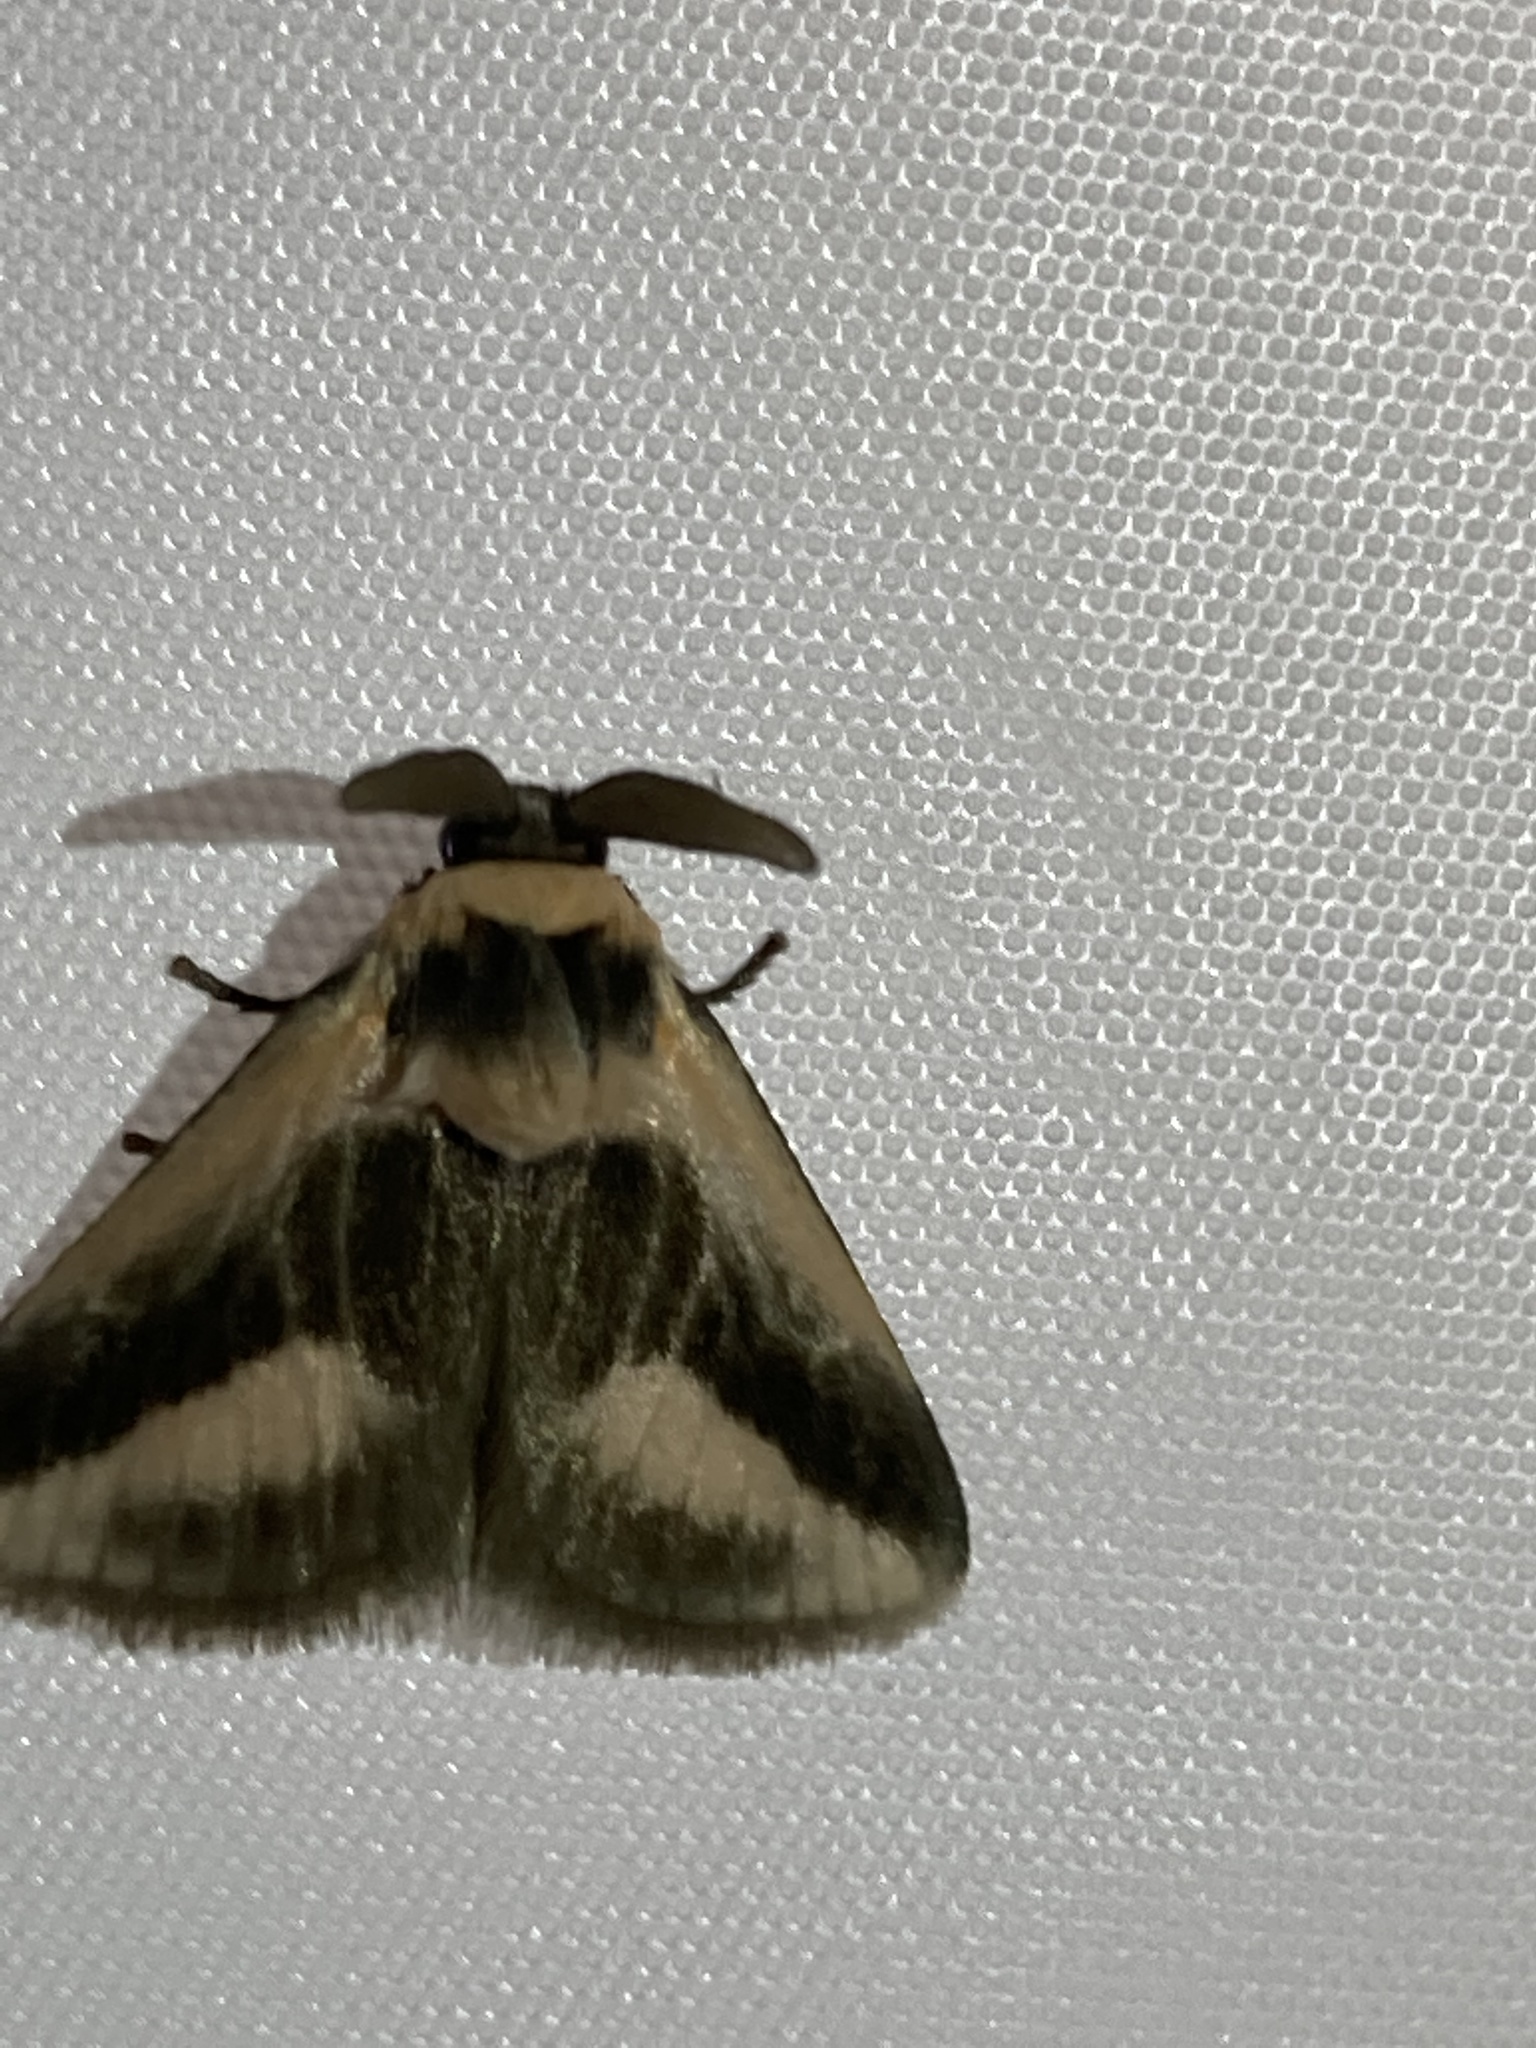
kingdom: Animalia
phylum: Arthropoda
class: Insecta
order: Lepidoptera
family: Megalopygidae
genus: Mesoscia
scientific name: Mesoscia dumilla
